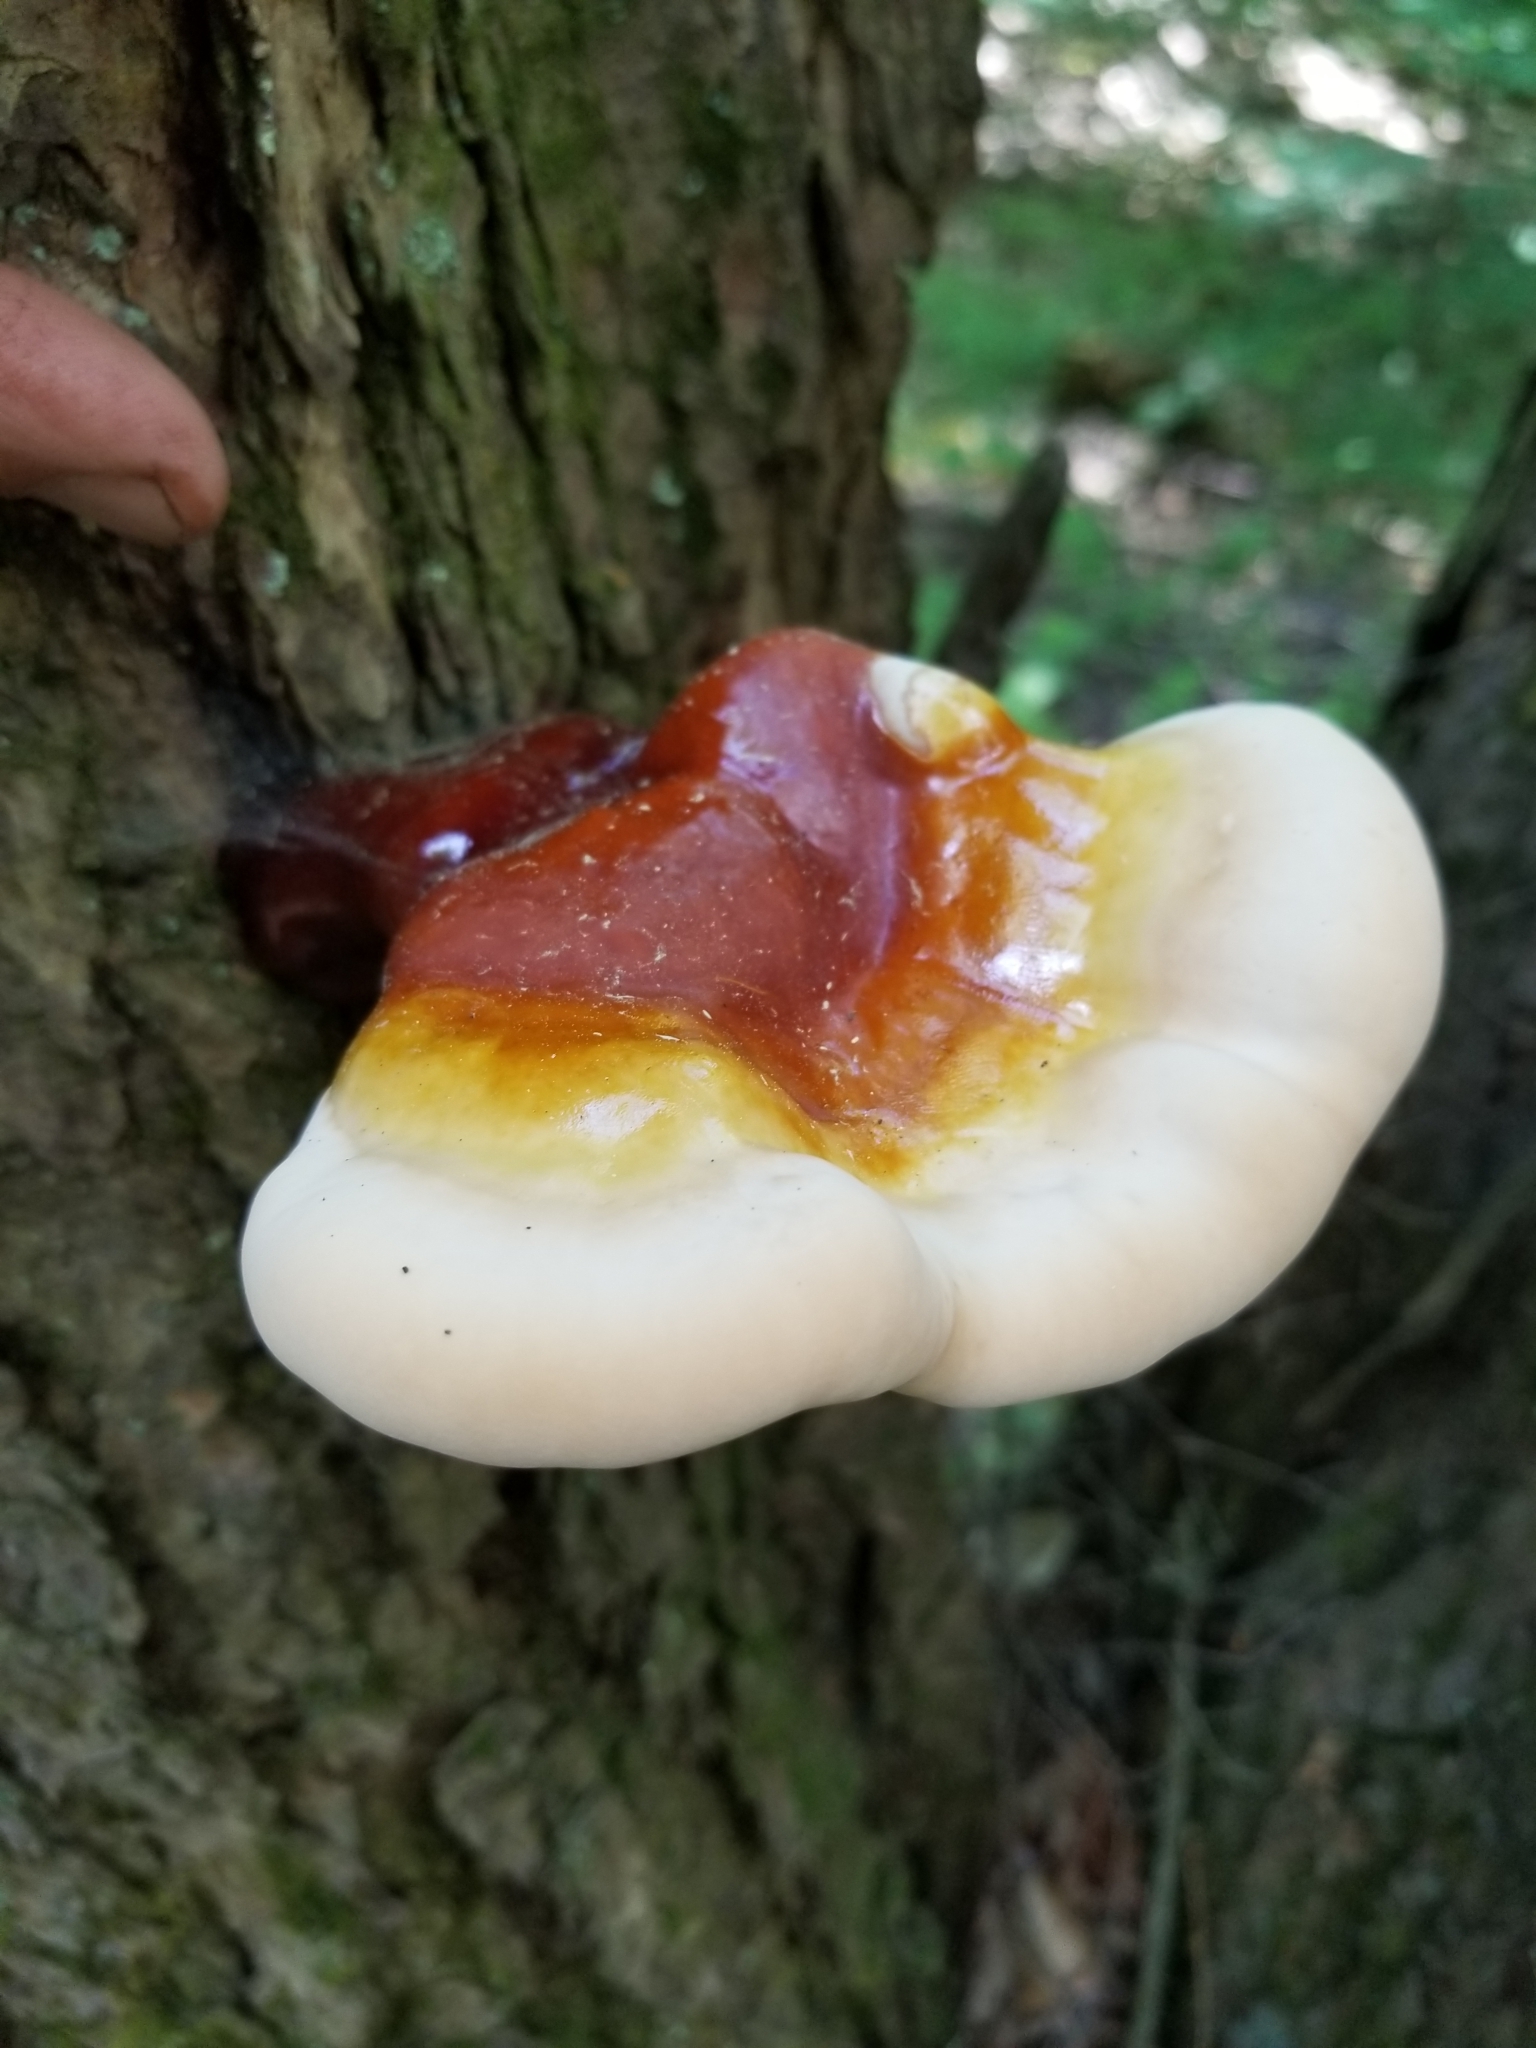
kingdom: Fungi
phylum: Basidiomycota
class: Agaricomycetes
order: Polyporales
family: Polyporaceae
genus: Ganoderma
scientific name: Ganoderma tsugae
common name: Hemlock varnish shelf
